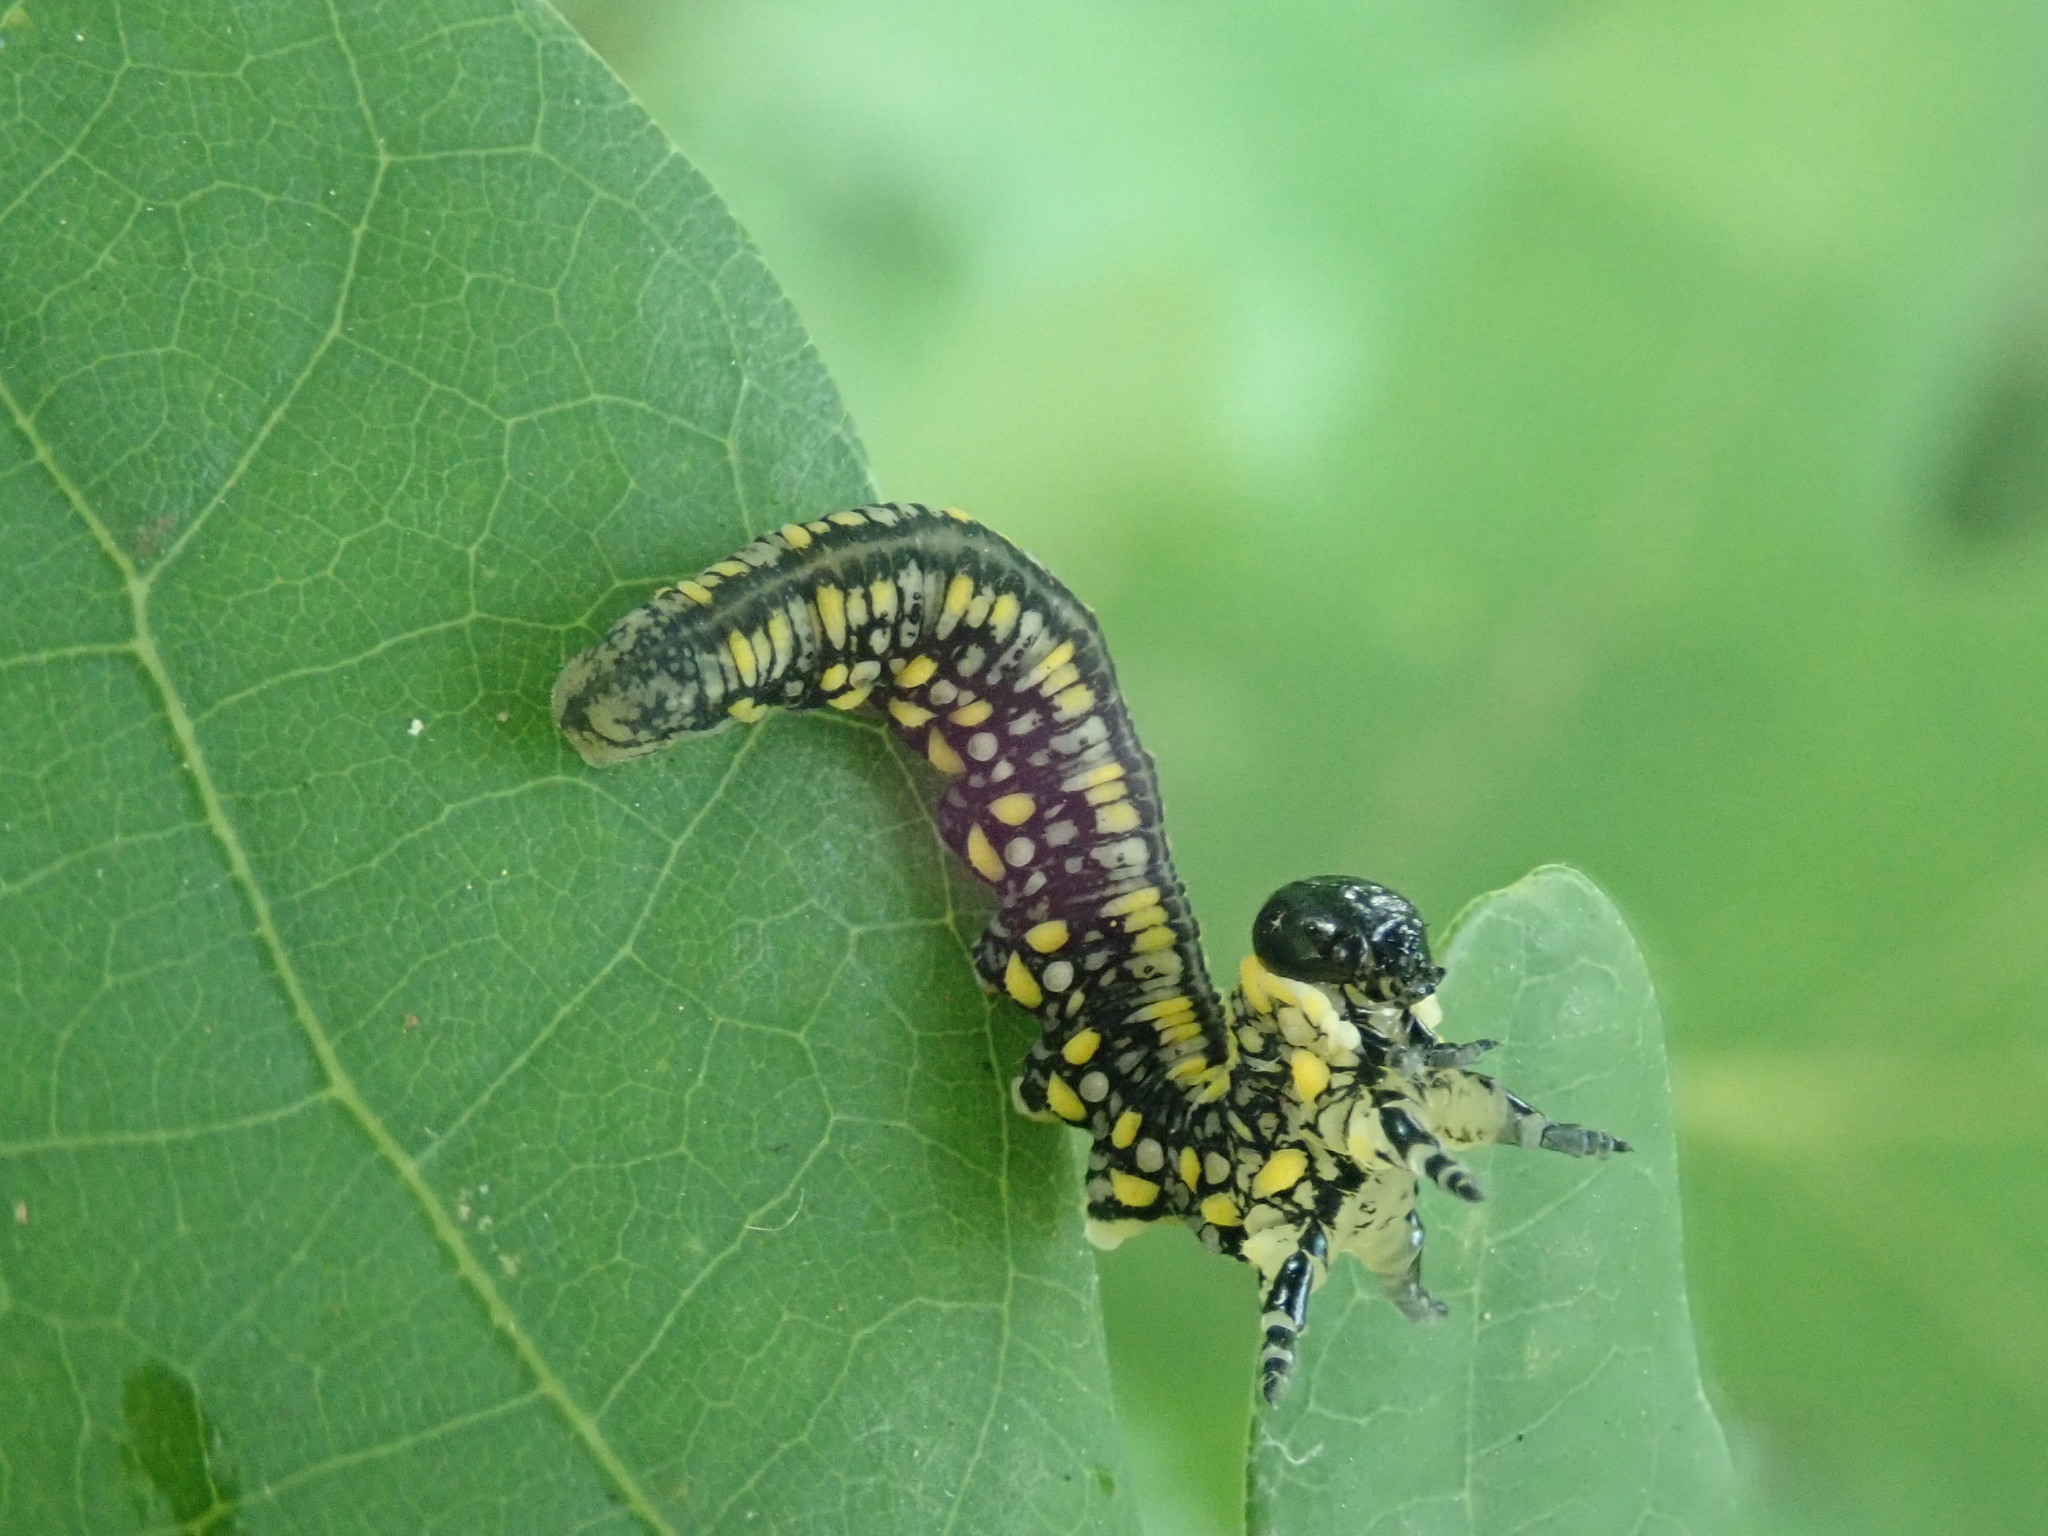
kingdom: Animalia
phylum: Arthropoda
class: Insecta
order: Hymenoptera
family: Diprionidae
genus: Diprion
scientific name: Diprion similis
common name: Pine sawfly
